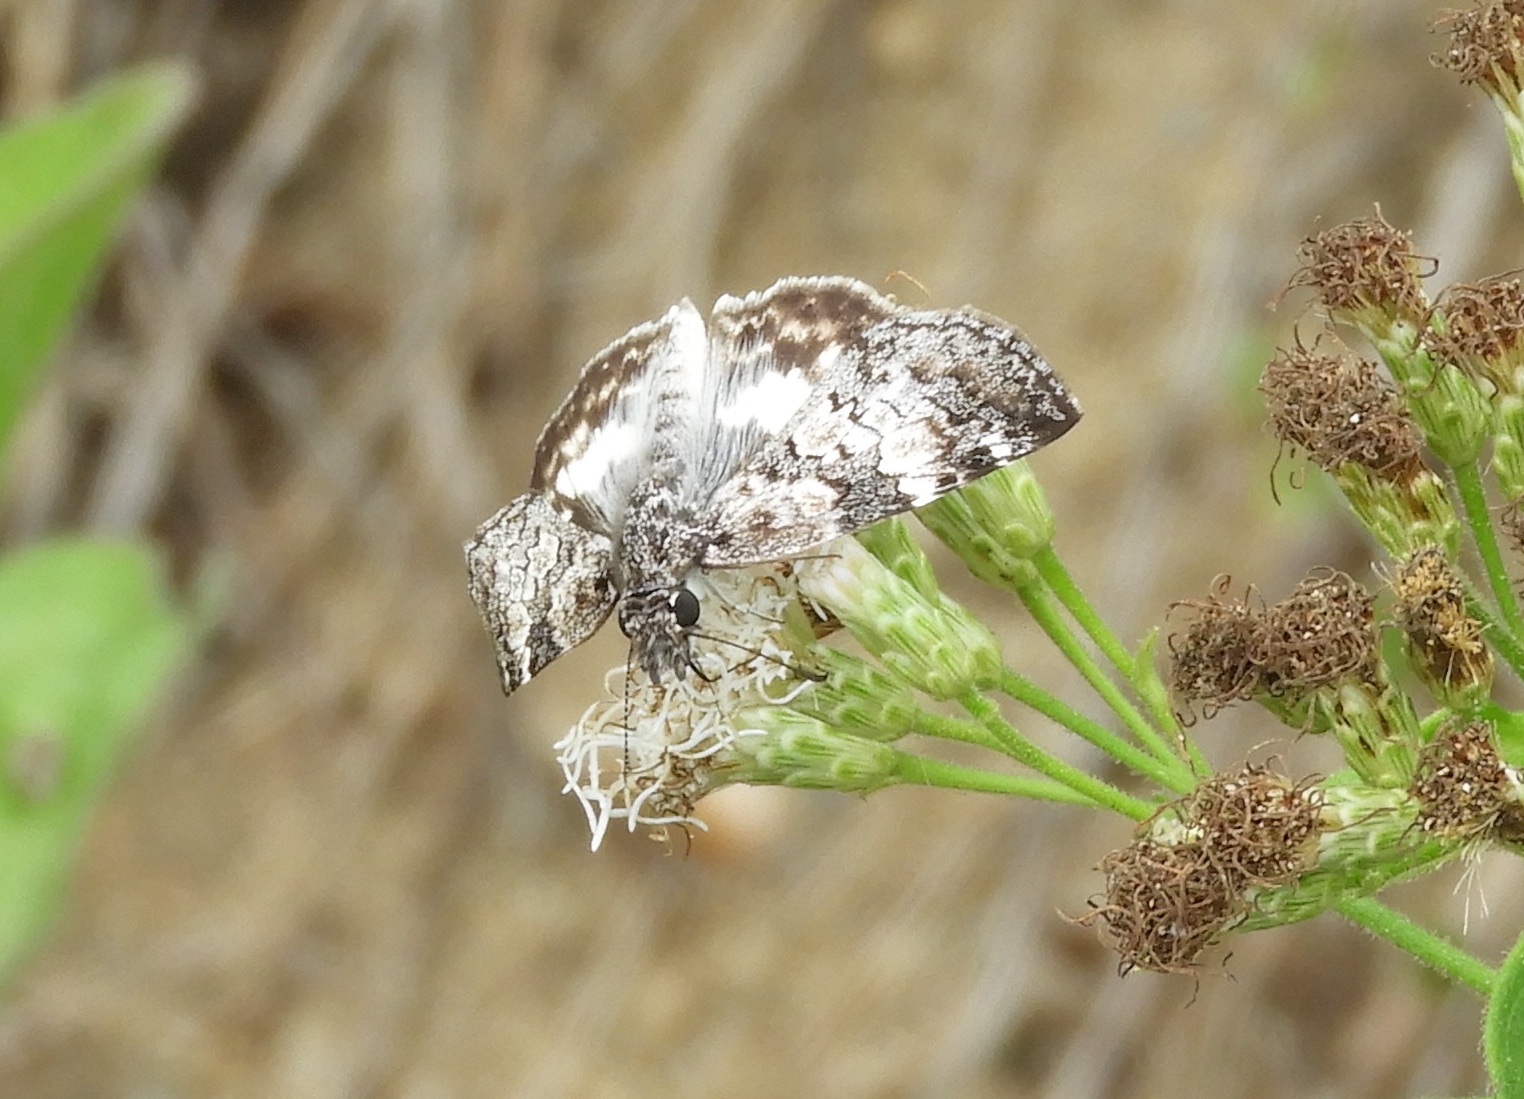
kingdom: Animalia
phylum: Arthropoda
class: Insecta
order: Lepidoptera
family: Hesperiidae
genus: Chiothion
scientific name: Chiothion georgina
